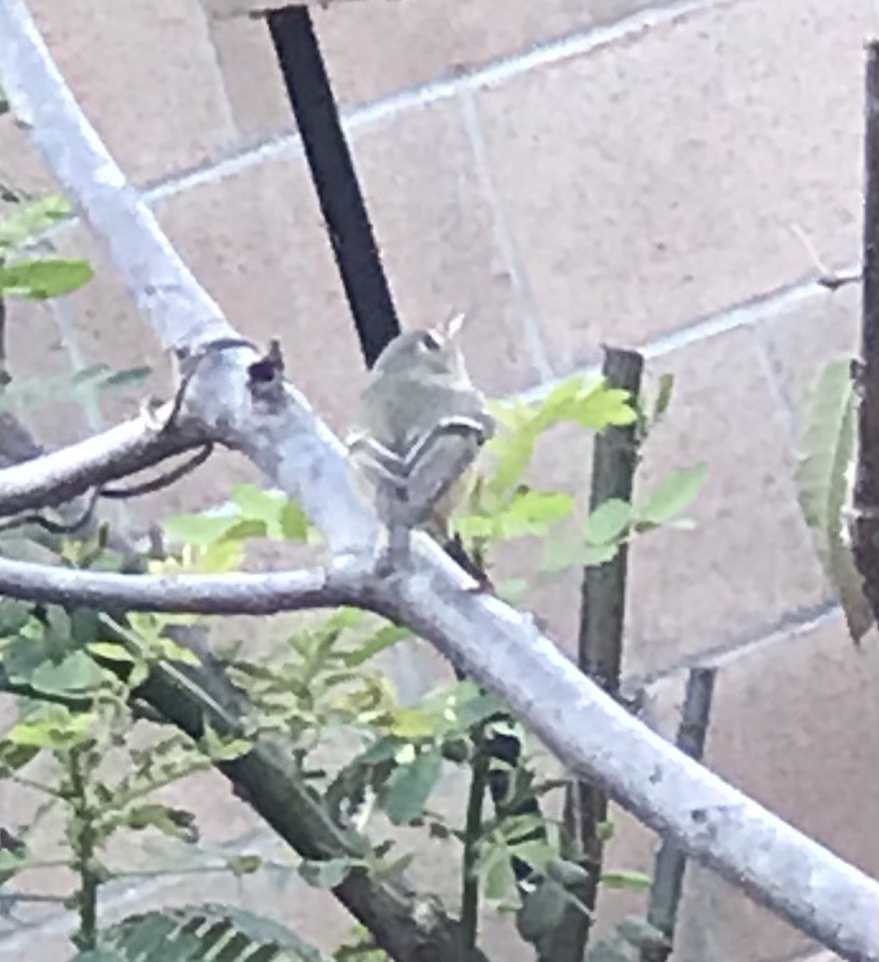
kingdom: Animalia
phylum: Chordata
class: Aves
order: Passeriformes
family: Regulidae
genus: Regulus
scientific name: Regulus calendula
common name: Ruby-crowned kinglet
